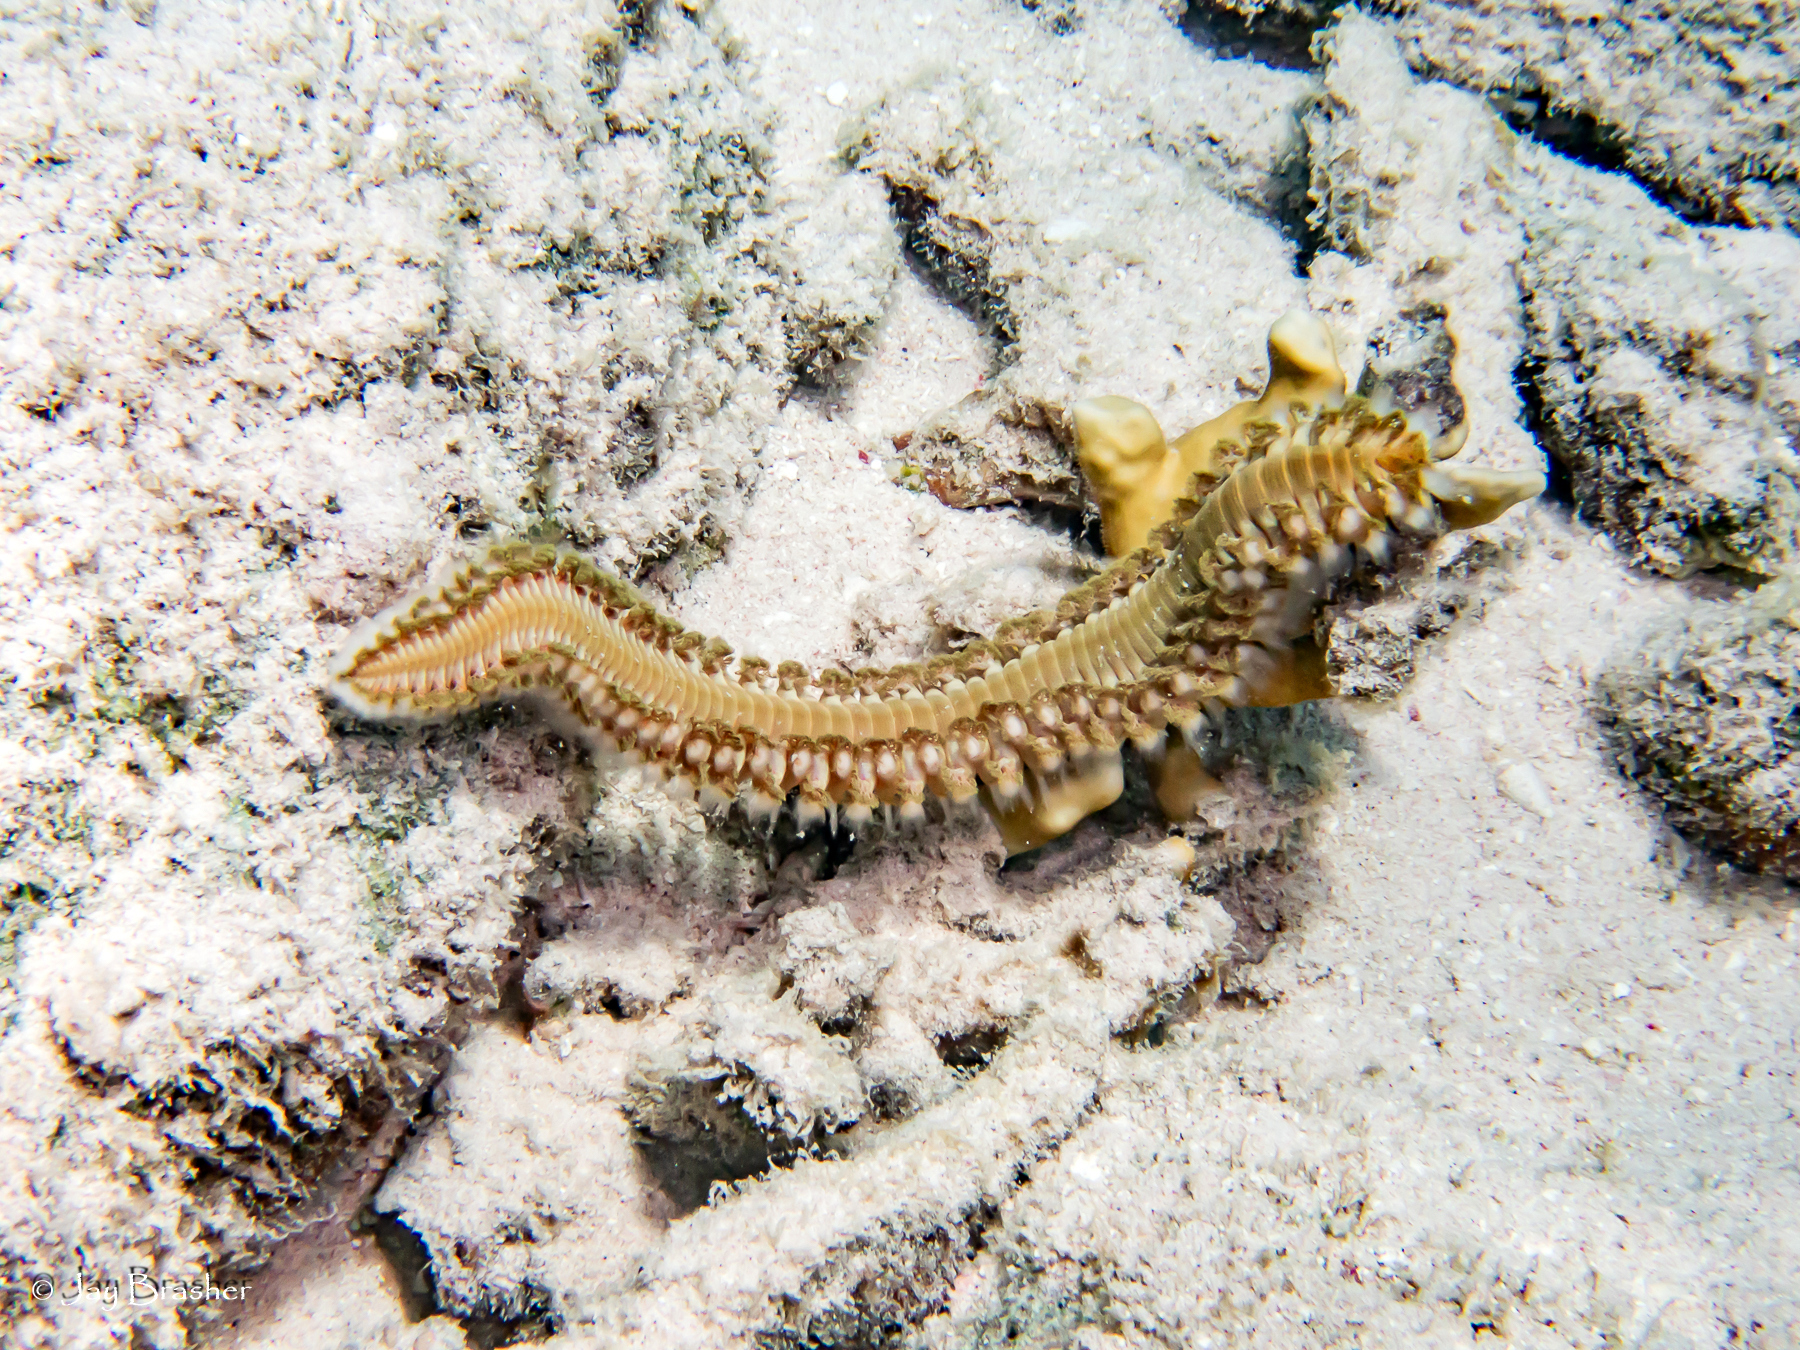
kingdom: Animalia
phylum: Annelida
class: Polychaeta
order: Amphinomida
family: Amphinomidae
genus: Hermodice
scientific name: Hermodice carunculata
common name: Bearded fireworm
